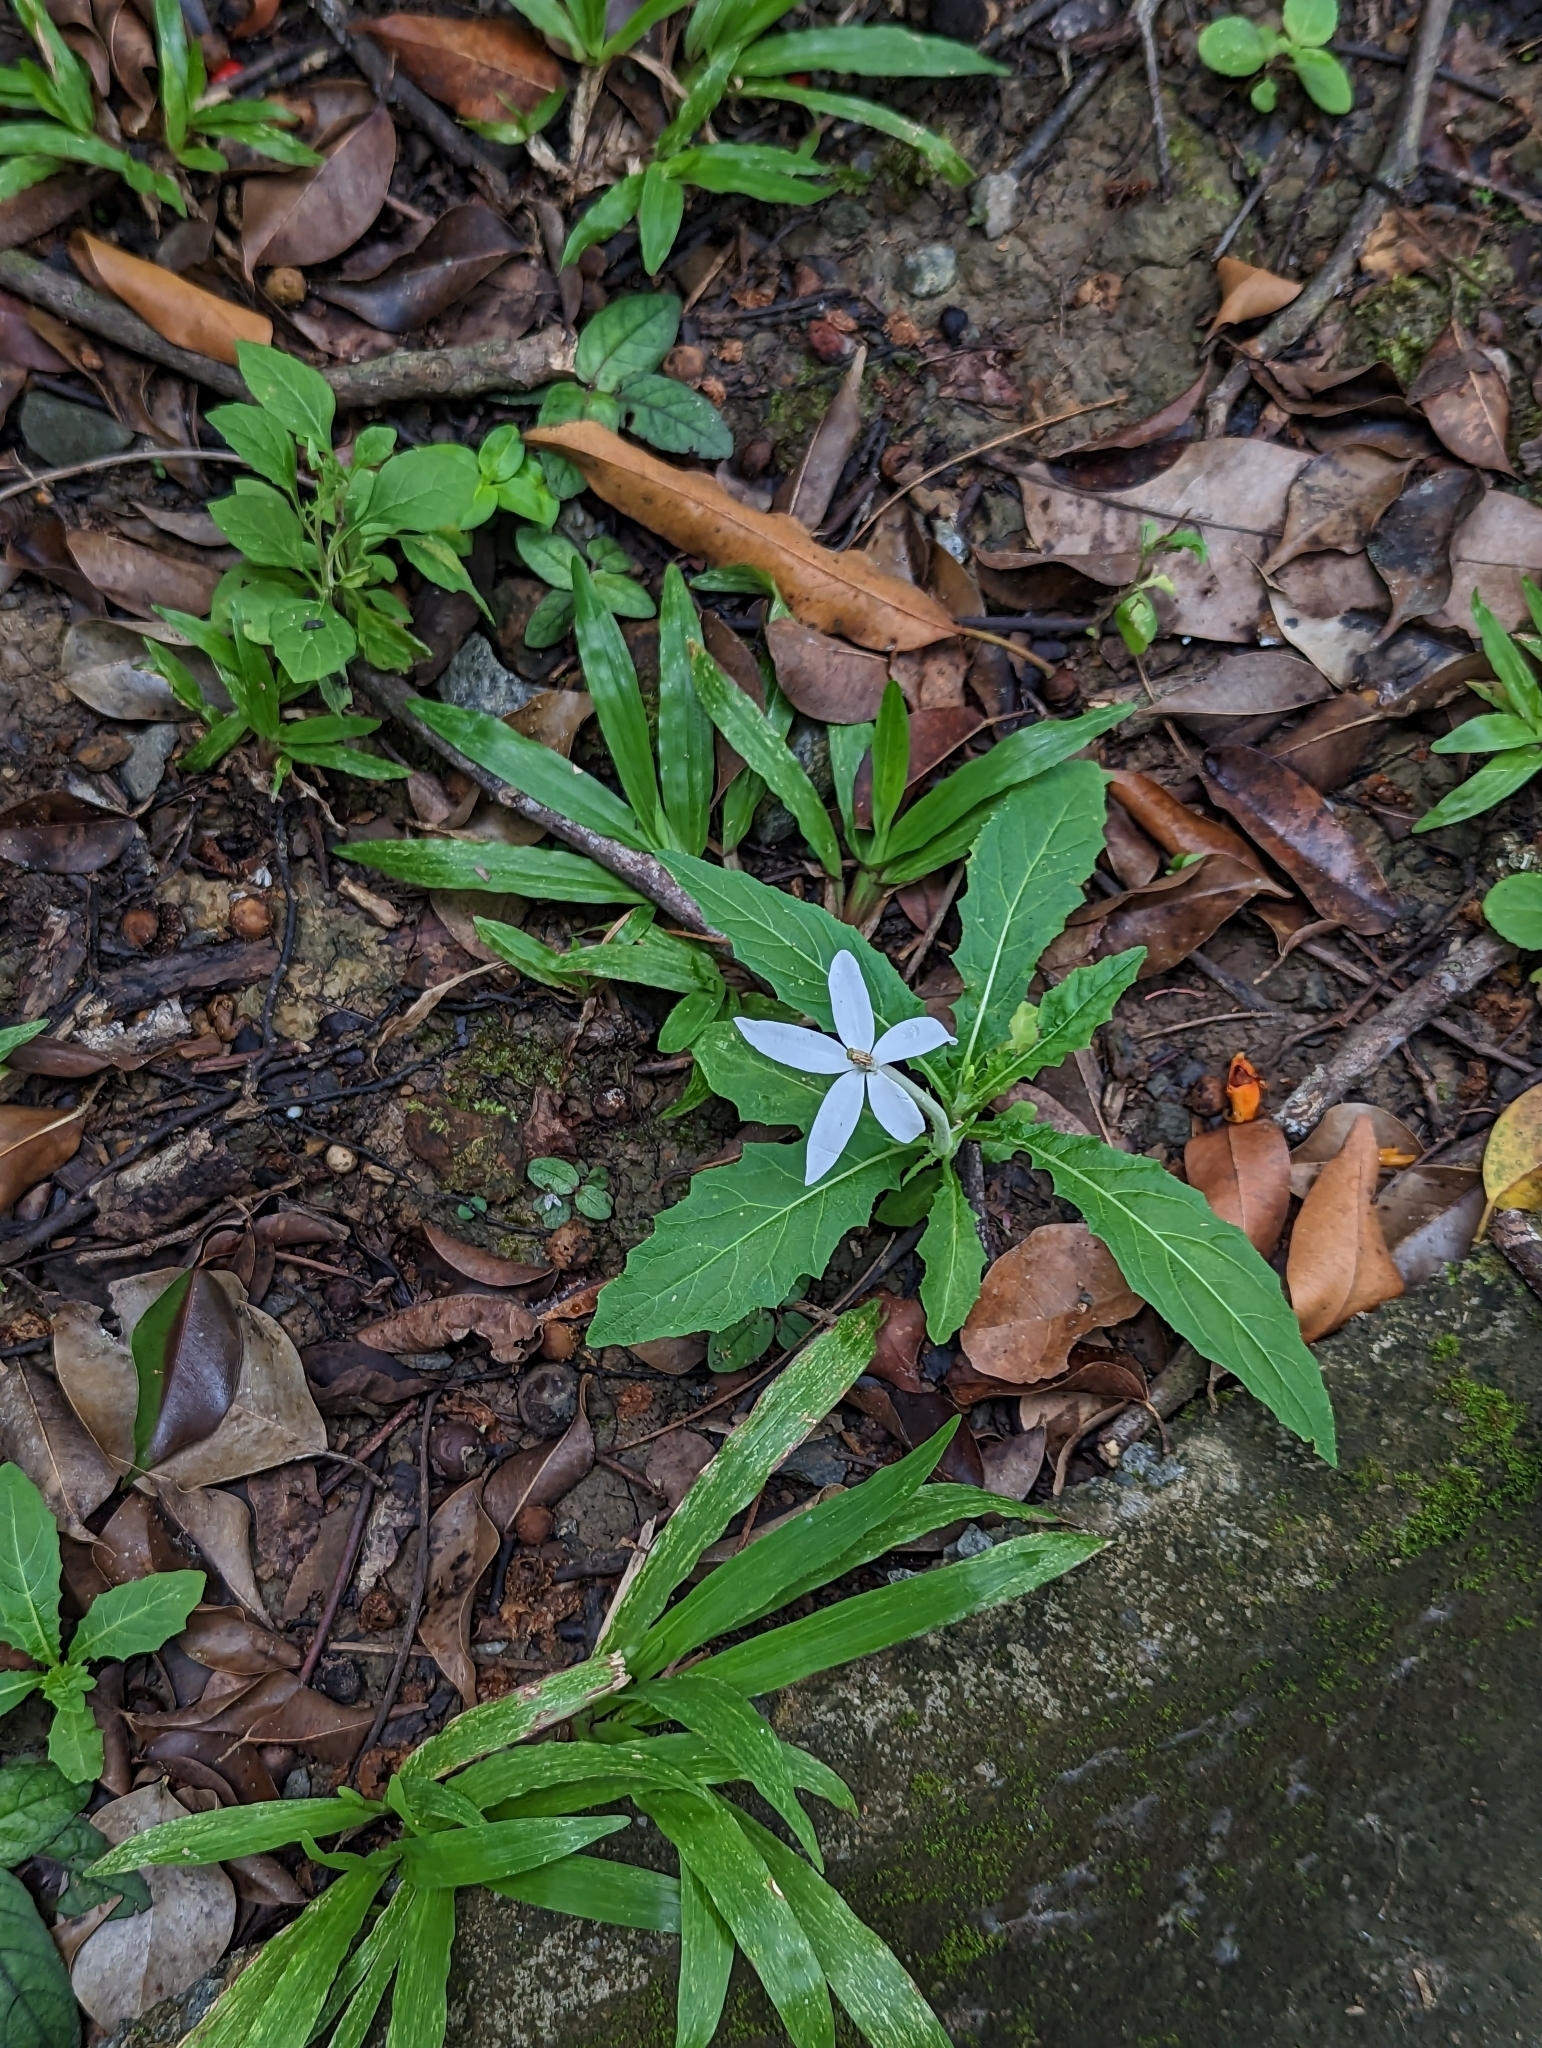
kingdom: Plantae
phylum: Tracheophyta
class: Magnoliopsida
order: Asterales
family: Campanulaceae
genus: Hippobroma
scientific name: Hippobroma longiflora
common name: Madamfate
